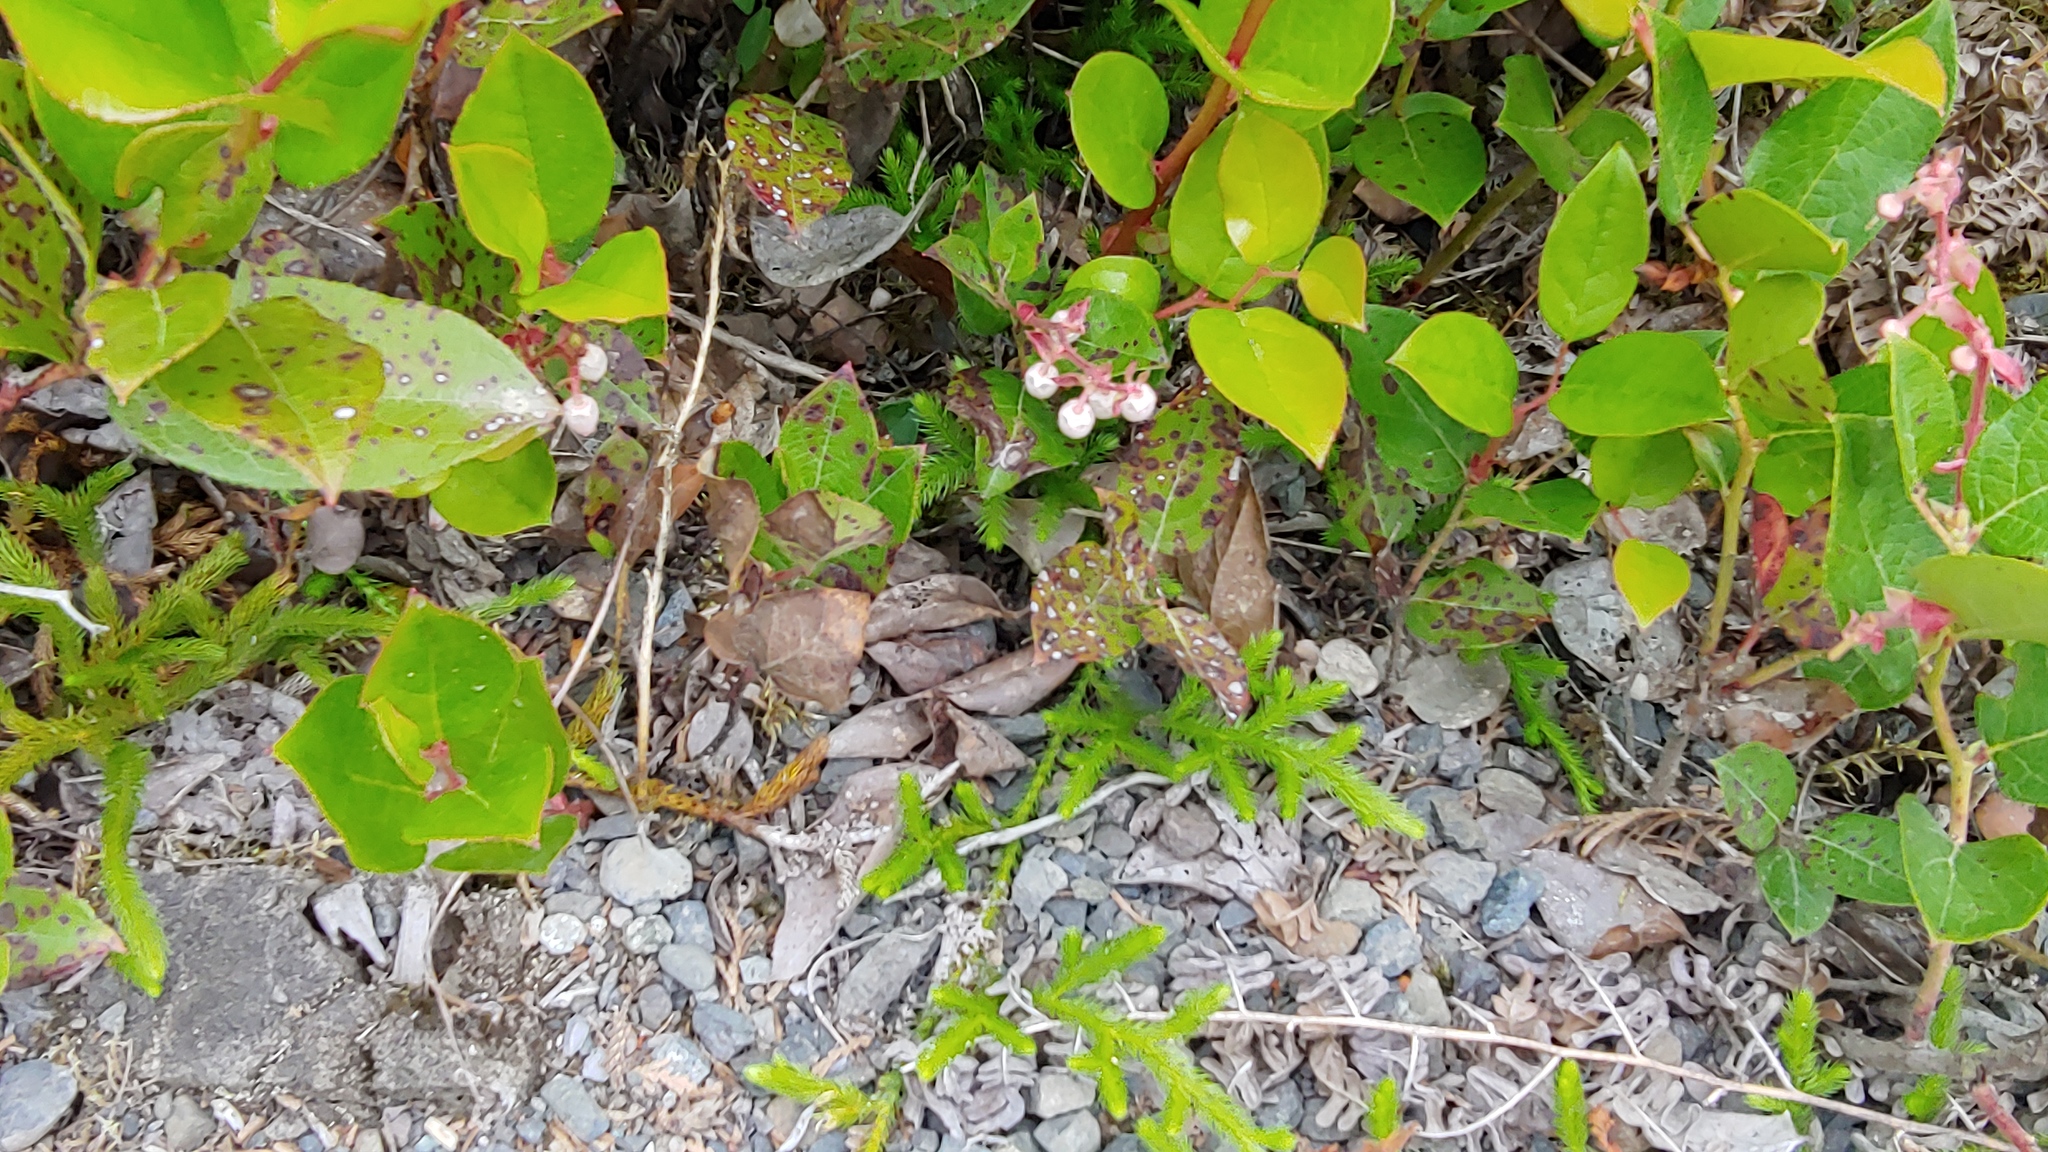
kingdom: Plantae
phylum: Tracheophyta
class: Lycopodiopsida
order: Lycopodiales
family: Lycopodiaceae
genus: Lycopodium
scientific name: Lycopodium clavatum
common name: Stag's-horn clubmoss
